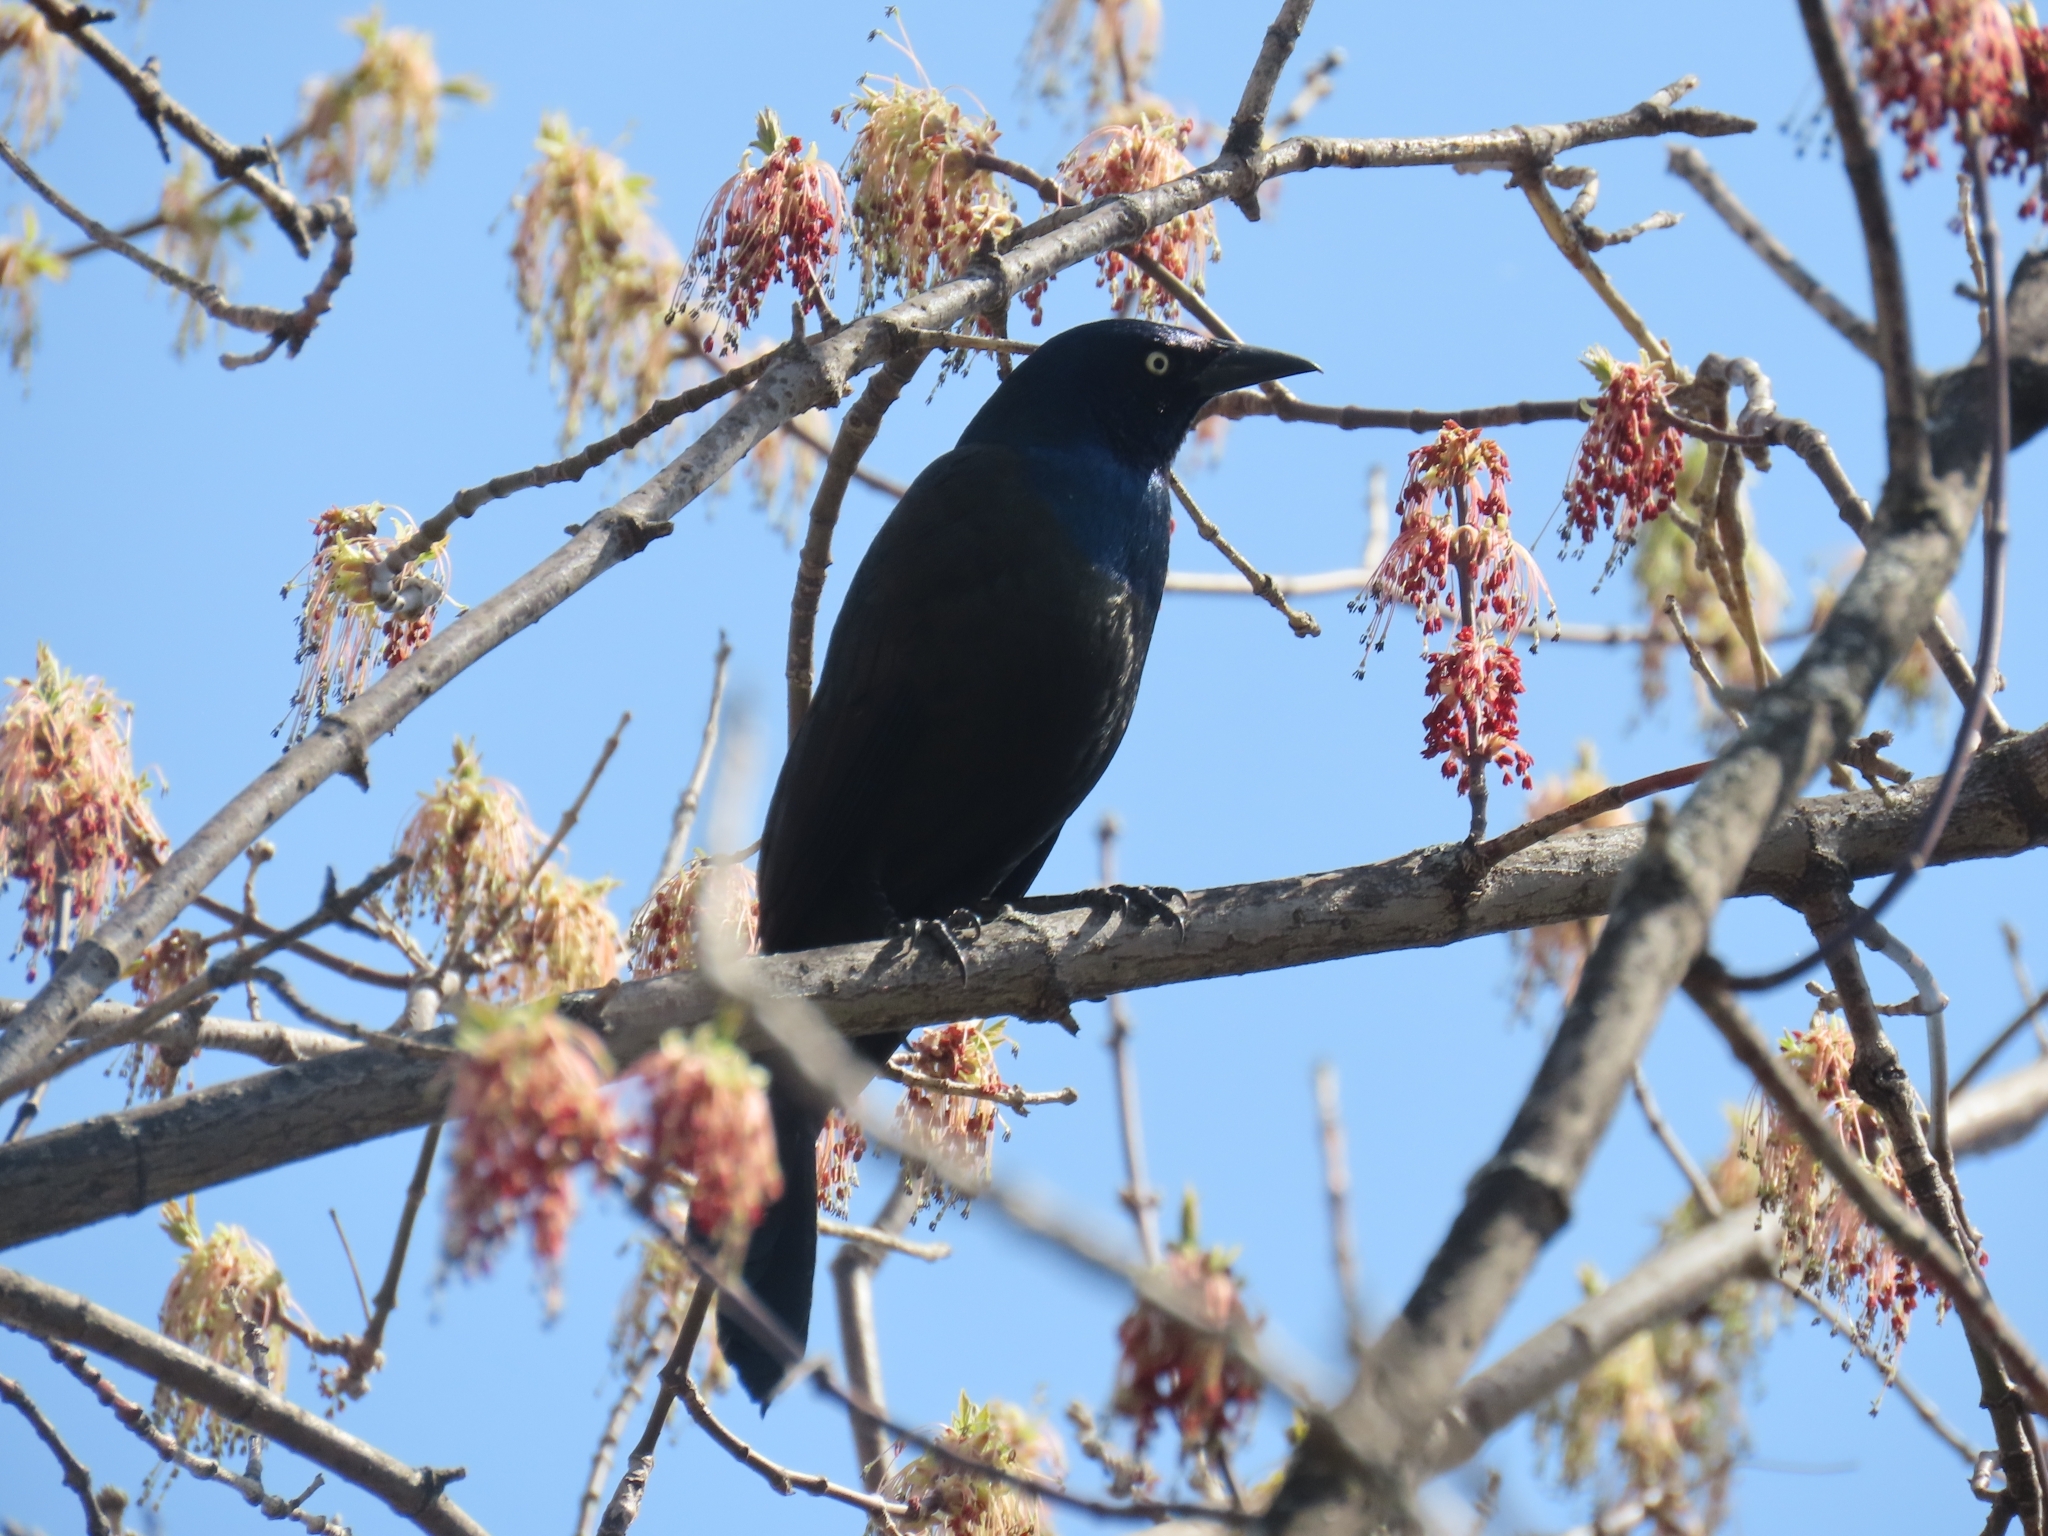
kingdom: Animalia
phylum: Chordata
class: Aves
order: Passeriformes
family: Icteridae
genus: Quiscalus
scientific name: Quiscalus quiscula
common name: Common grackle
